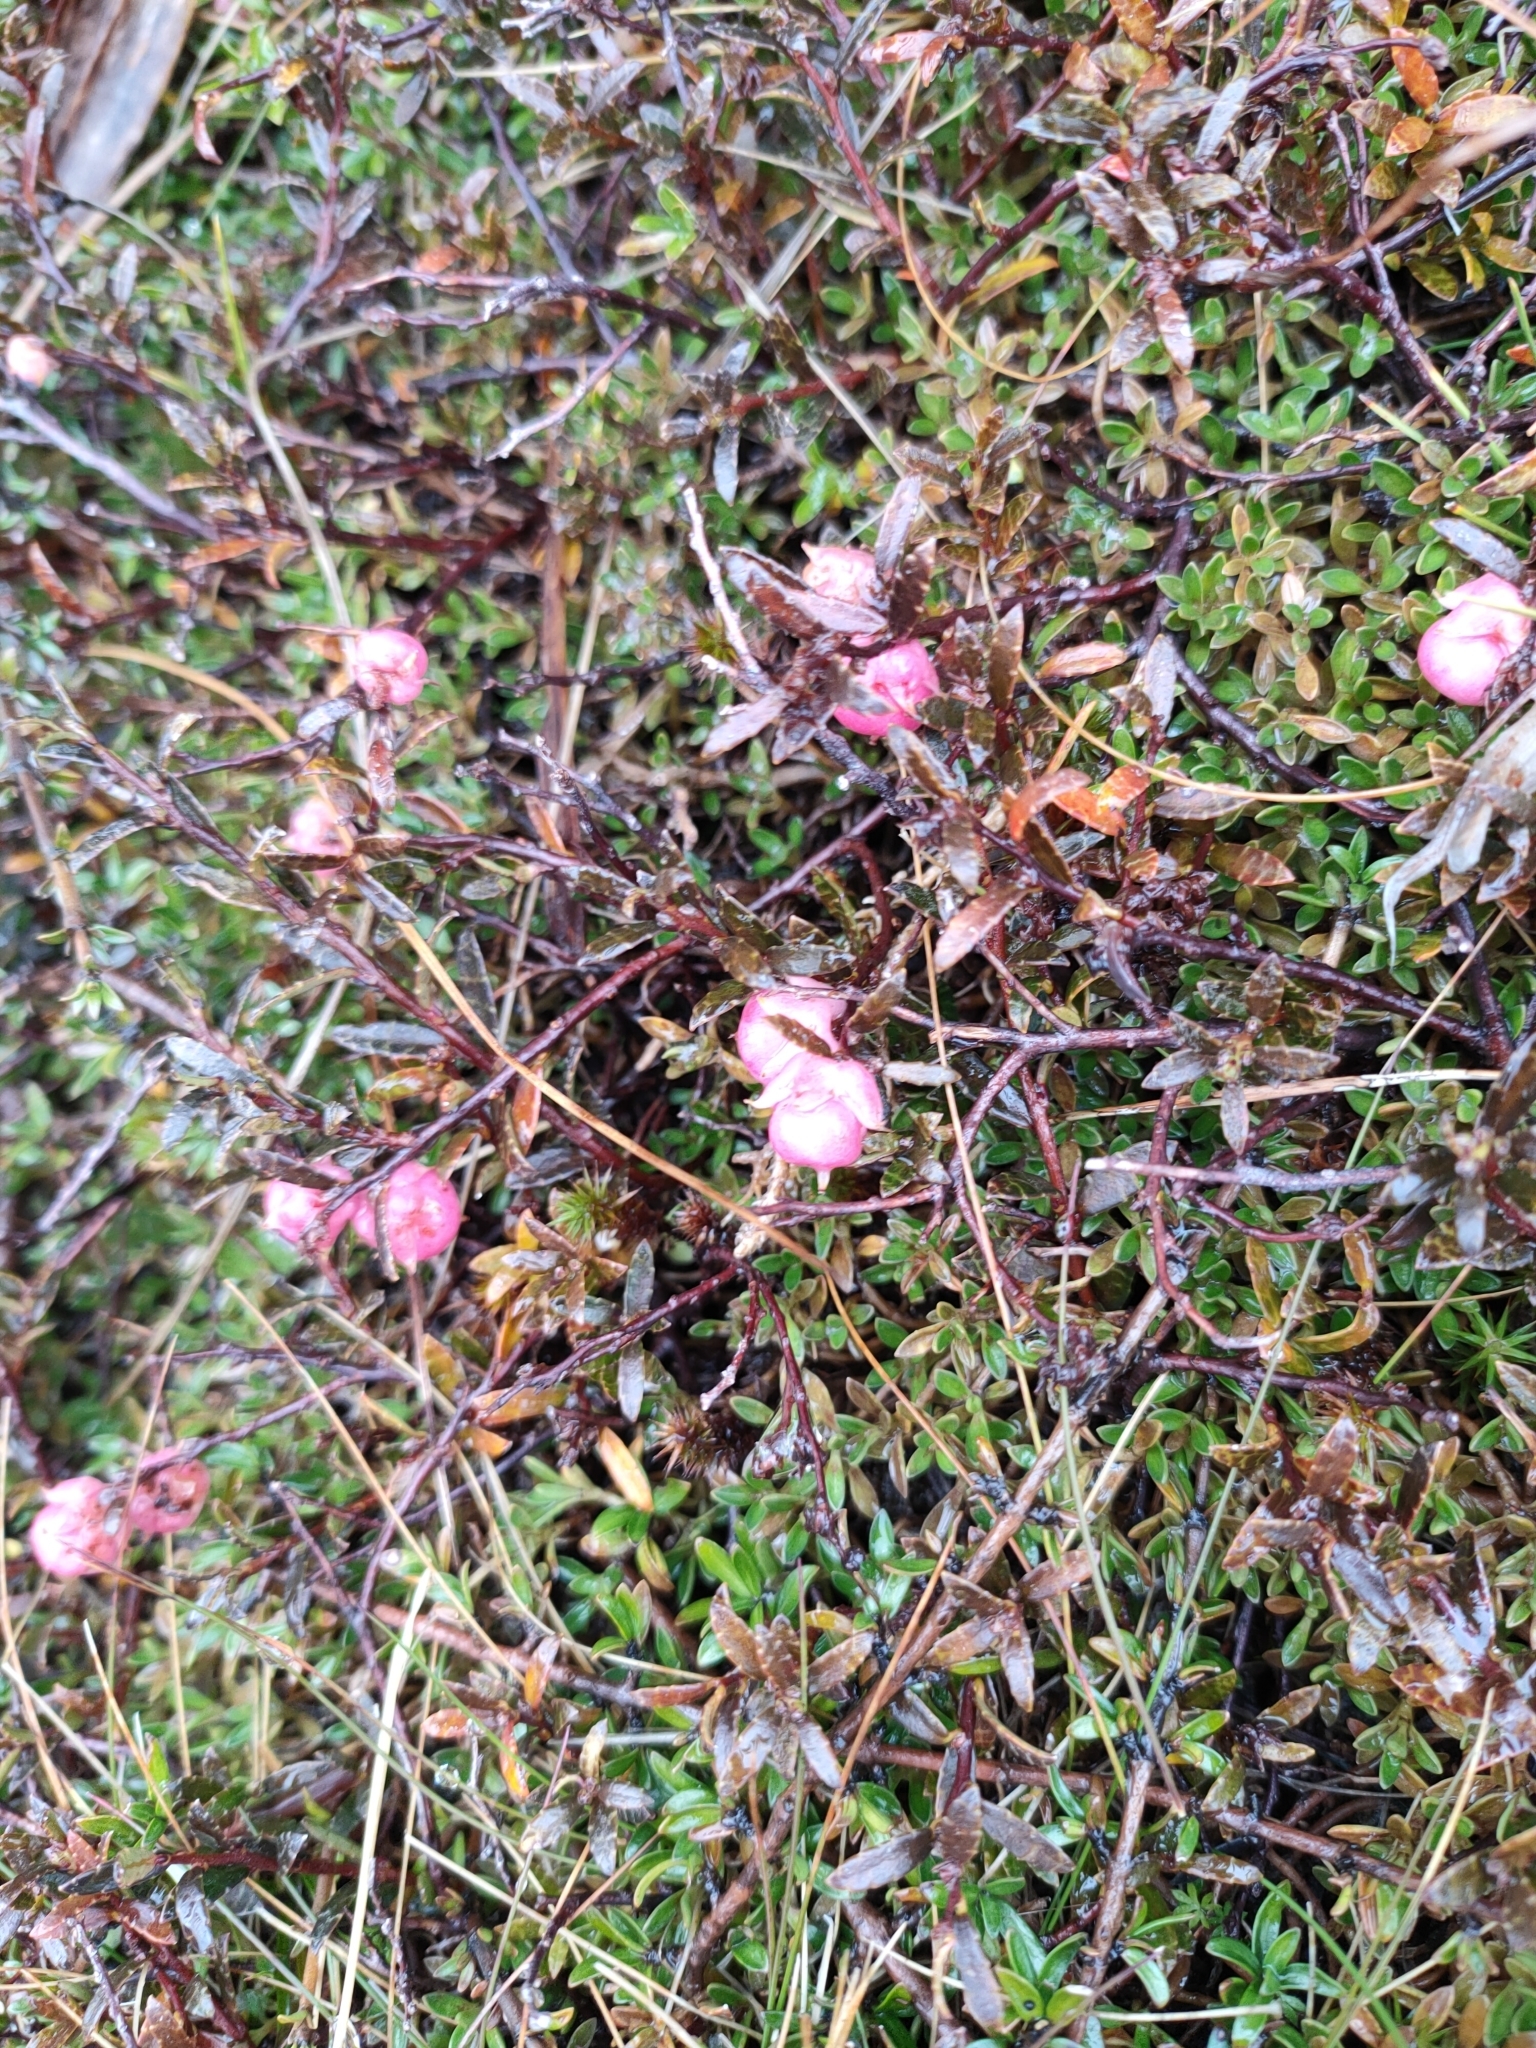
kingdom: Plantae
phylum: Tracheophyta
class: Magnoliopsida
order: Ericales
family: Ericaceae
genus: Gaultheria
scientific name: Gaultheria macrostigma
